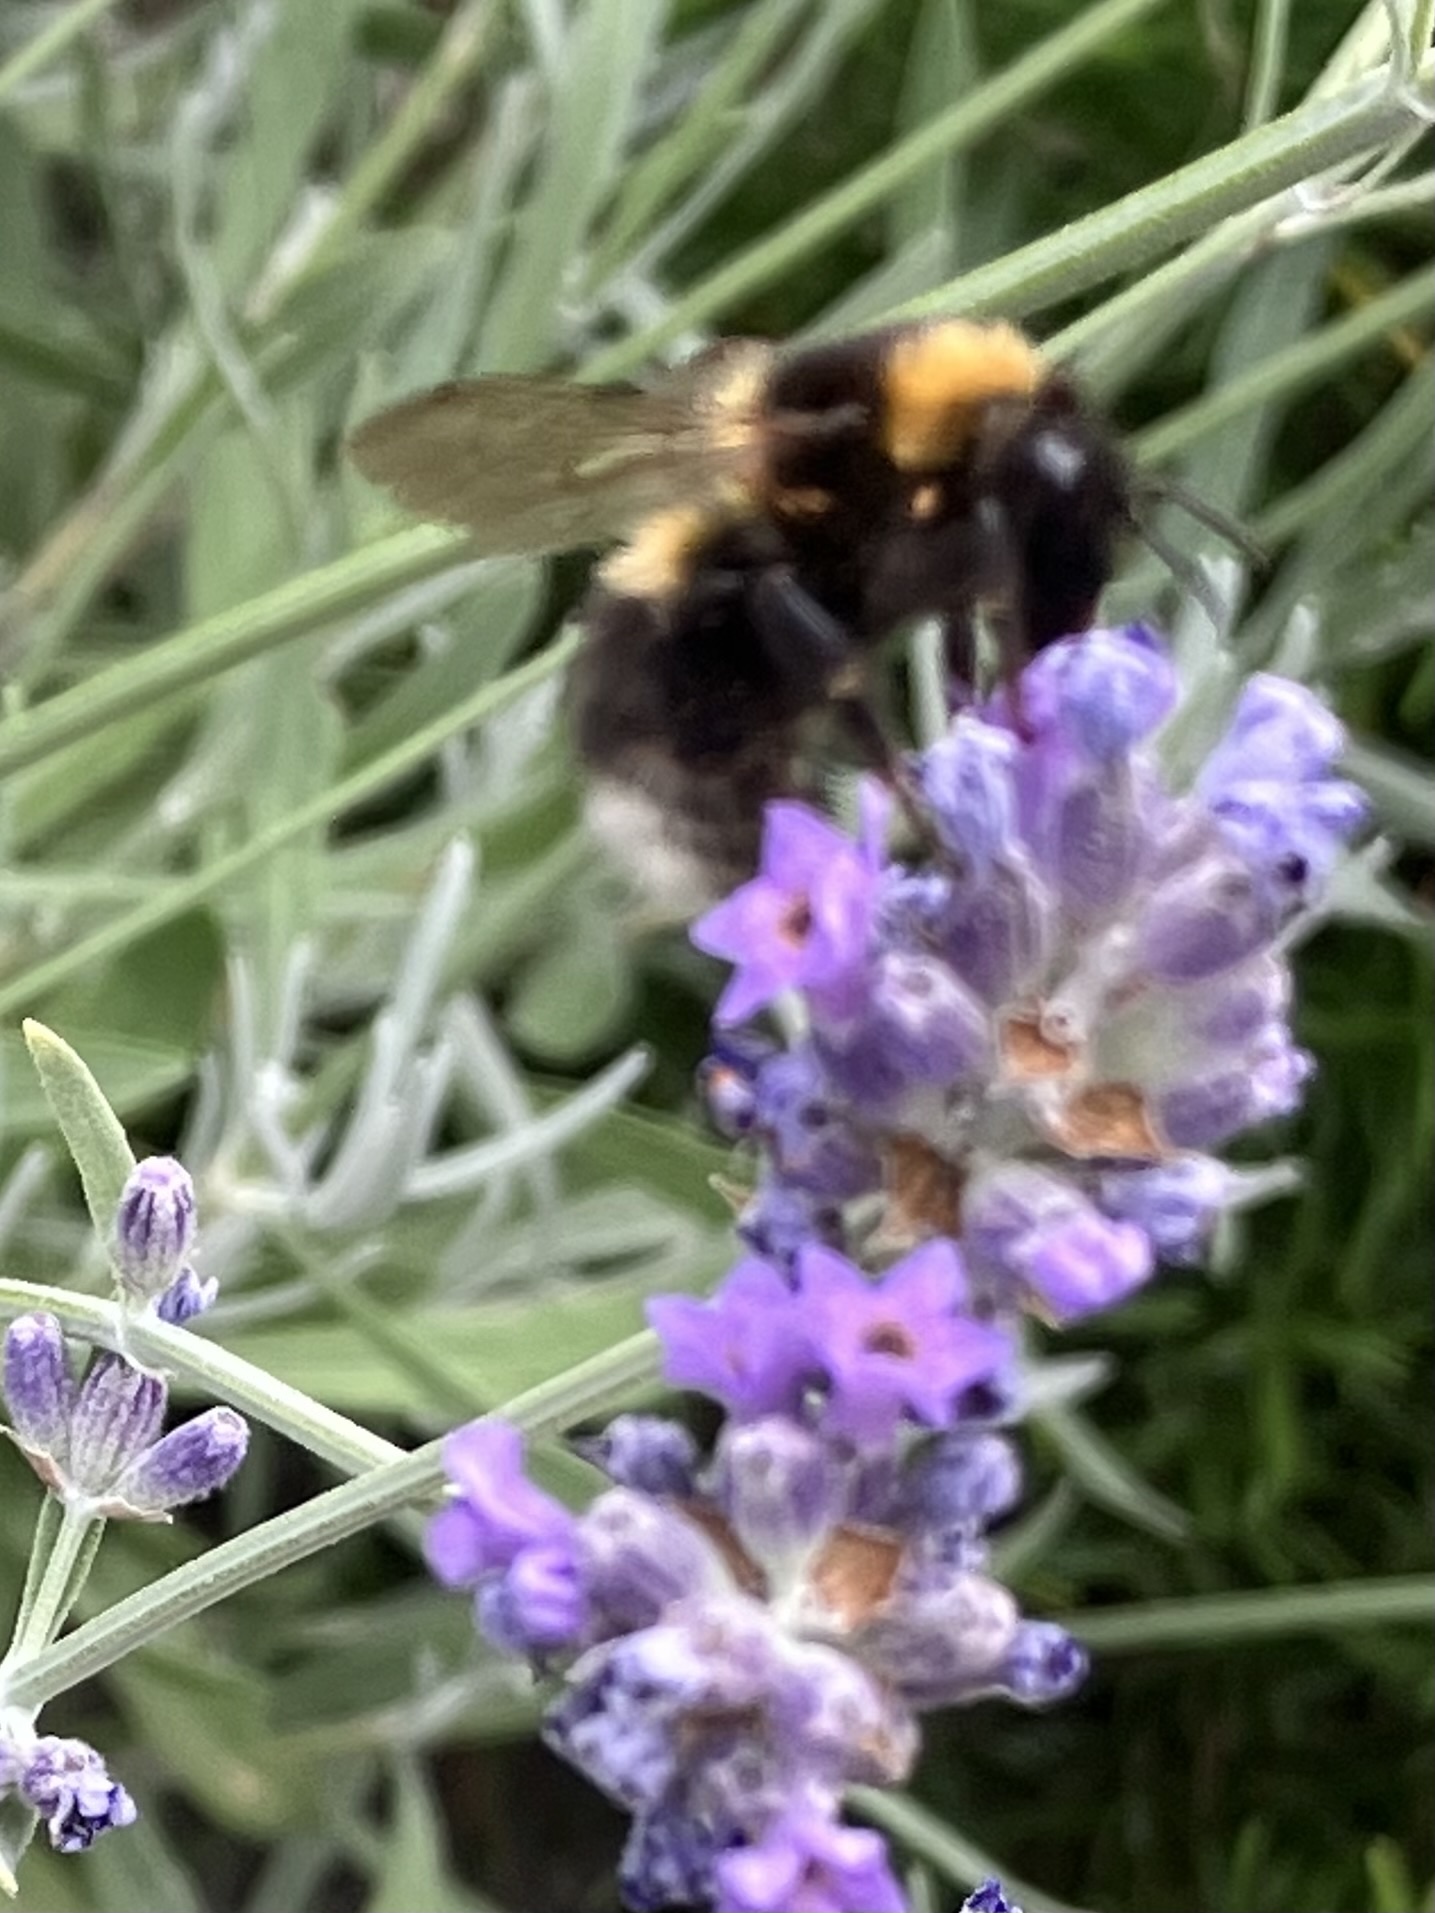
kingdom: Animalia
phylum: Arthropoda
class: Insecta
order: Hymenoptera
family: Apidae
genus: Bombus
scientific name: Bombus hortorum
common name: Garden bumblebee
